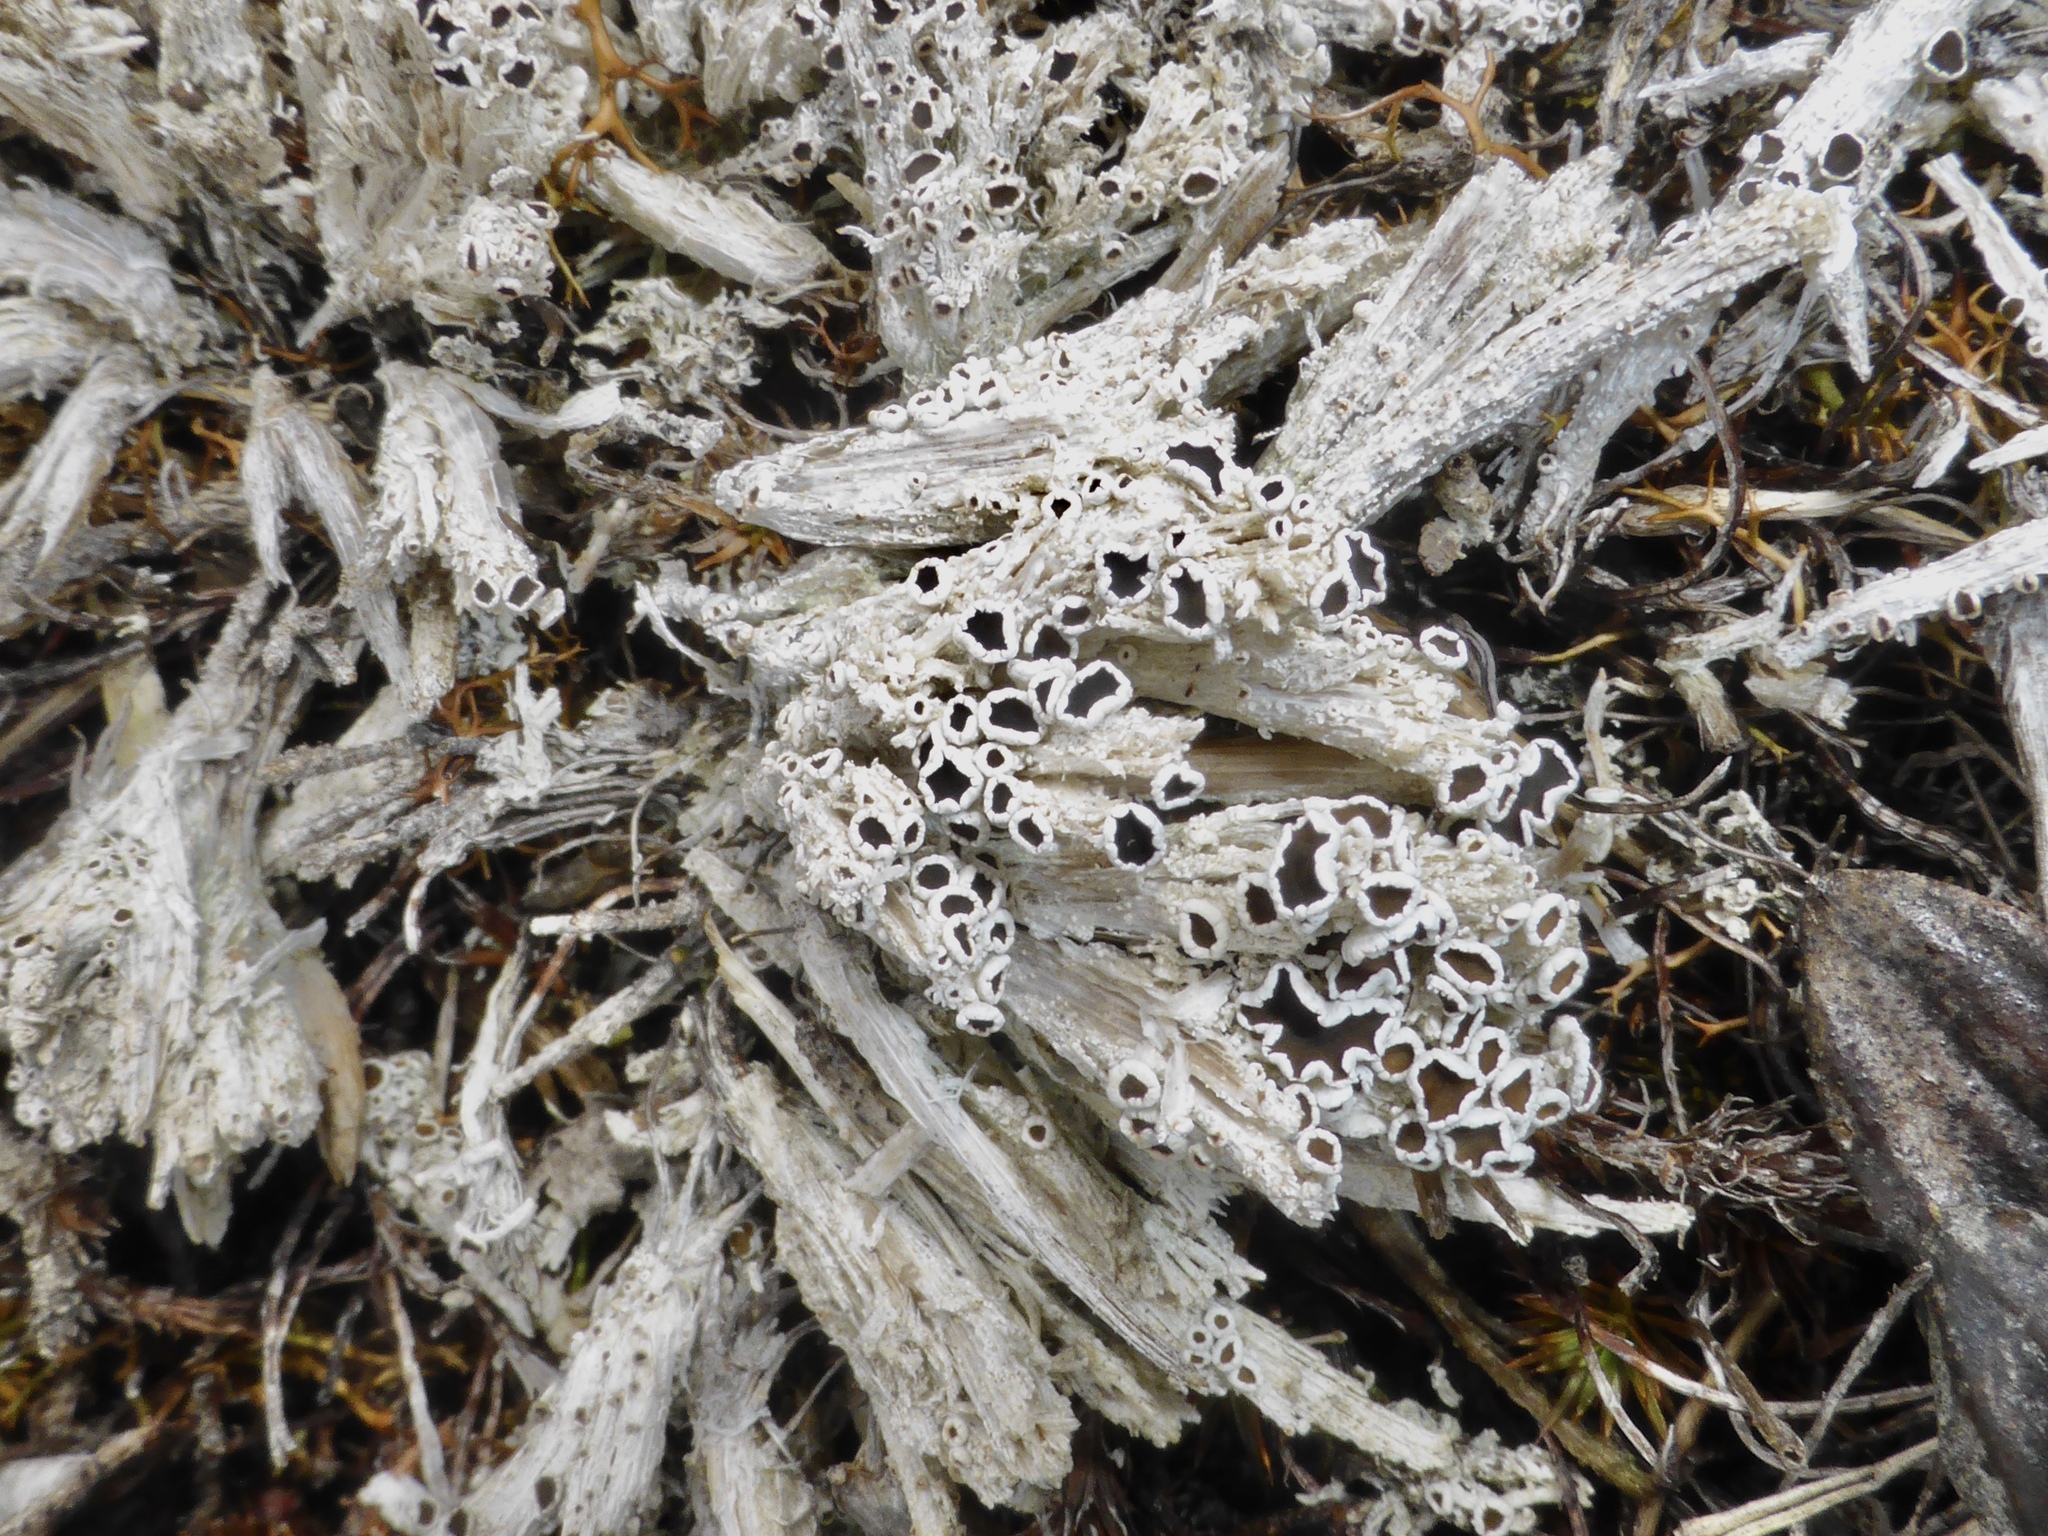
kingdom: Fungi
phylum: Ascomycota
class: Lecanoromycetes
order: Lecanorales
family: Lecanoraceae
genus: Lecanora
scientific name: Lecanora epibryon
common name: Mossbane rim lichen
